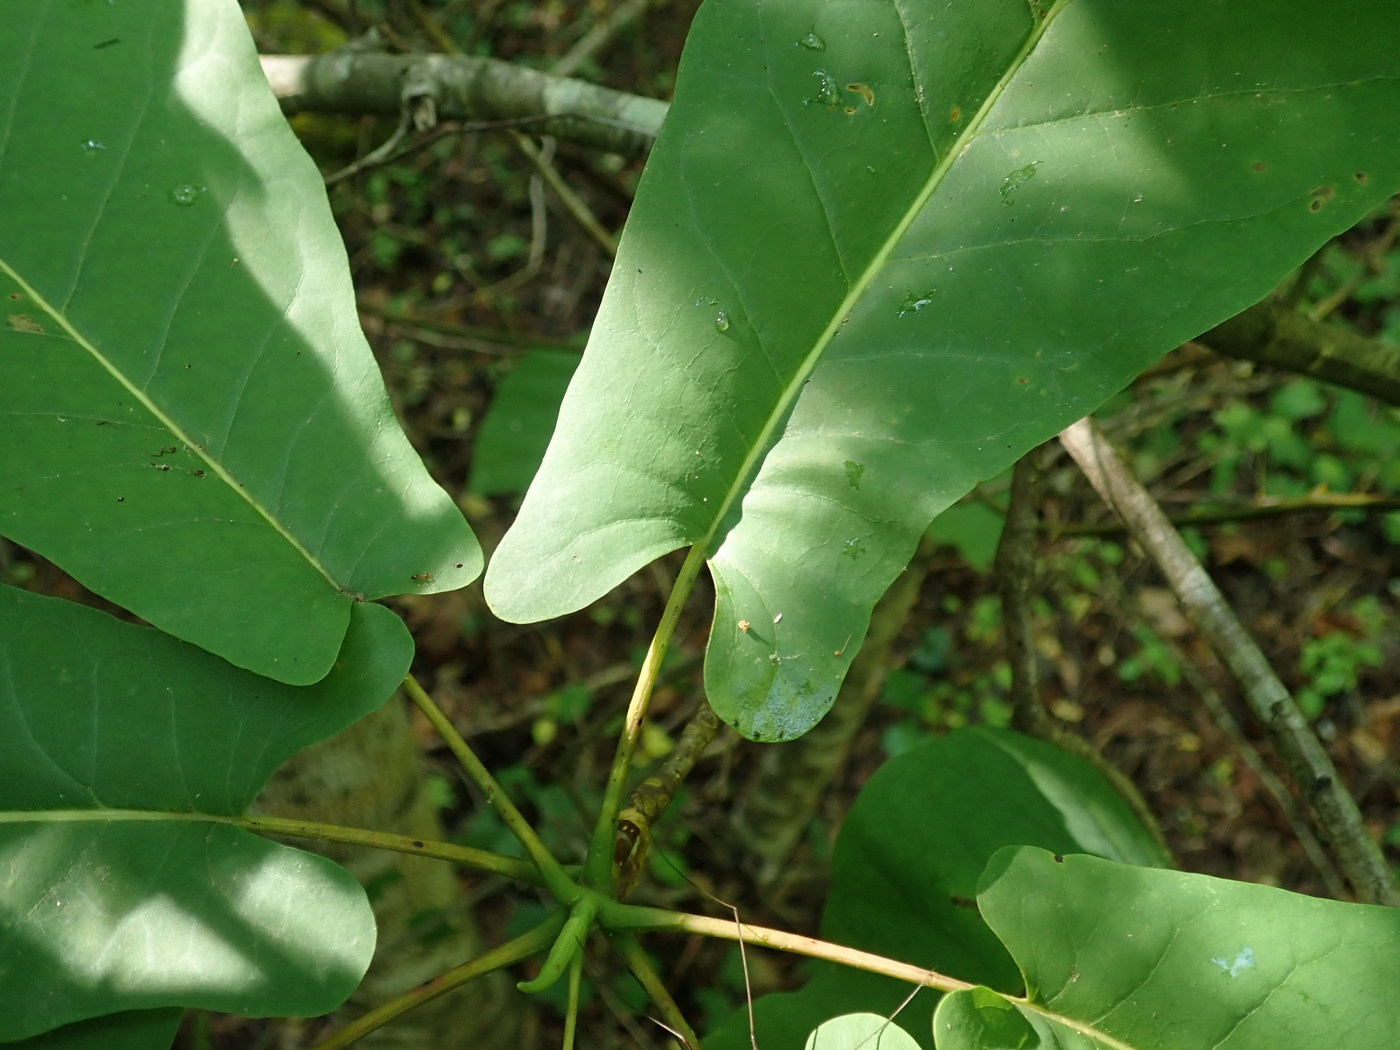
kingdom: Plantae
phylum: Tracheophyta
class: Magnoliopsida
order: Magnoliales
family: Magnoliaceae
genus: Magnolia
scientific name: Magnolia fraseri
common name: Fraser's magnolia
